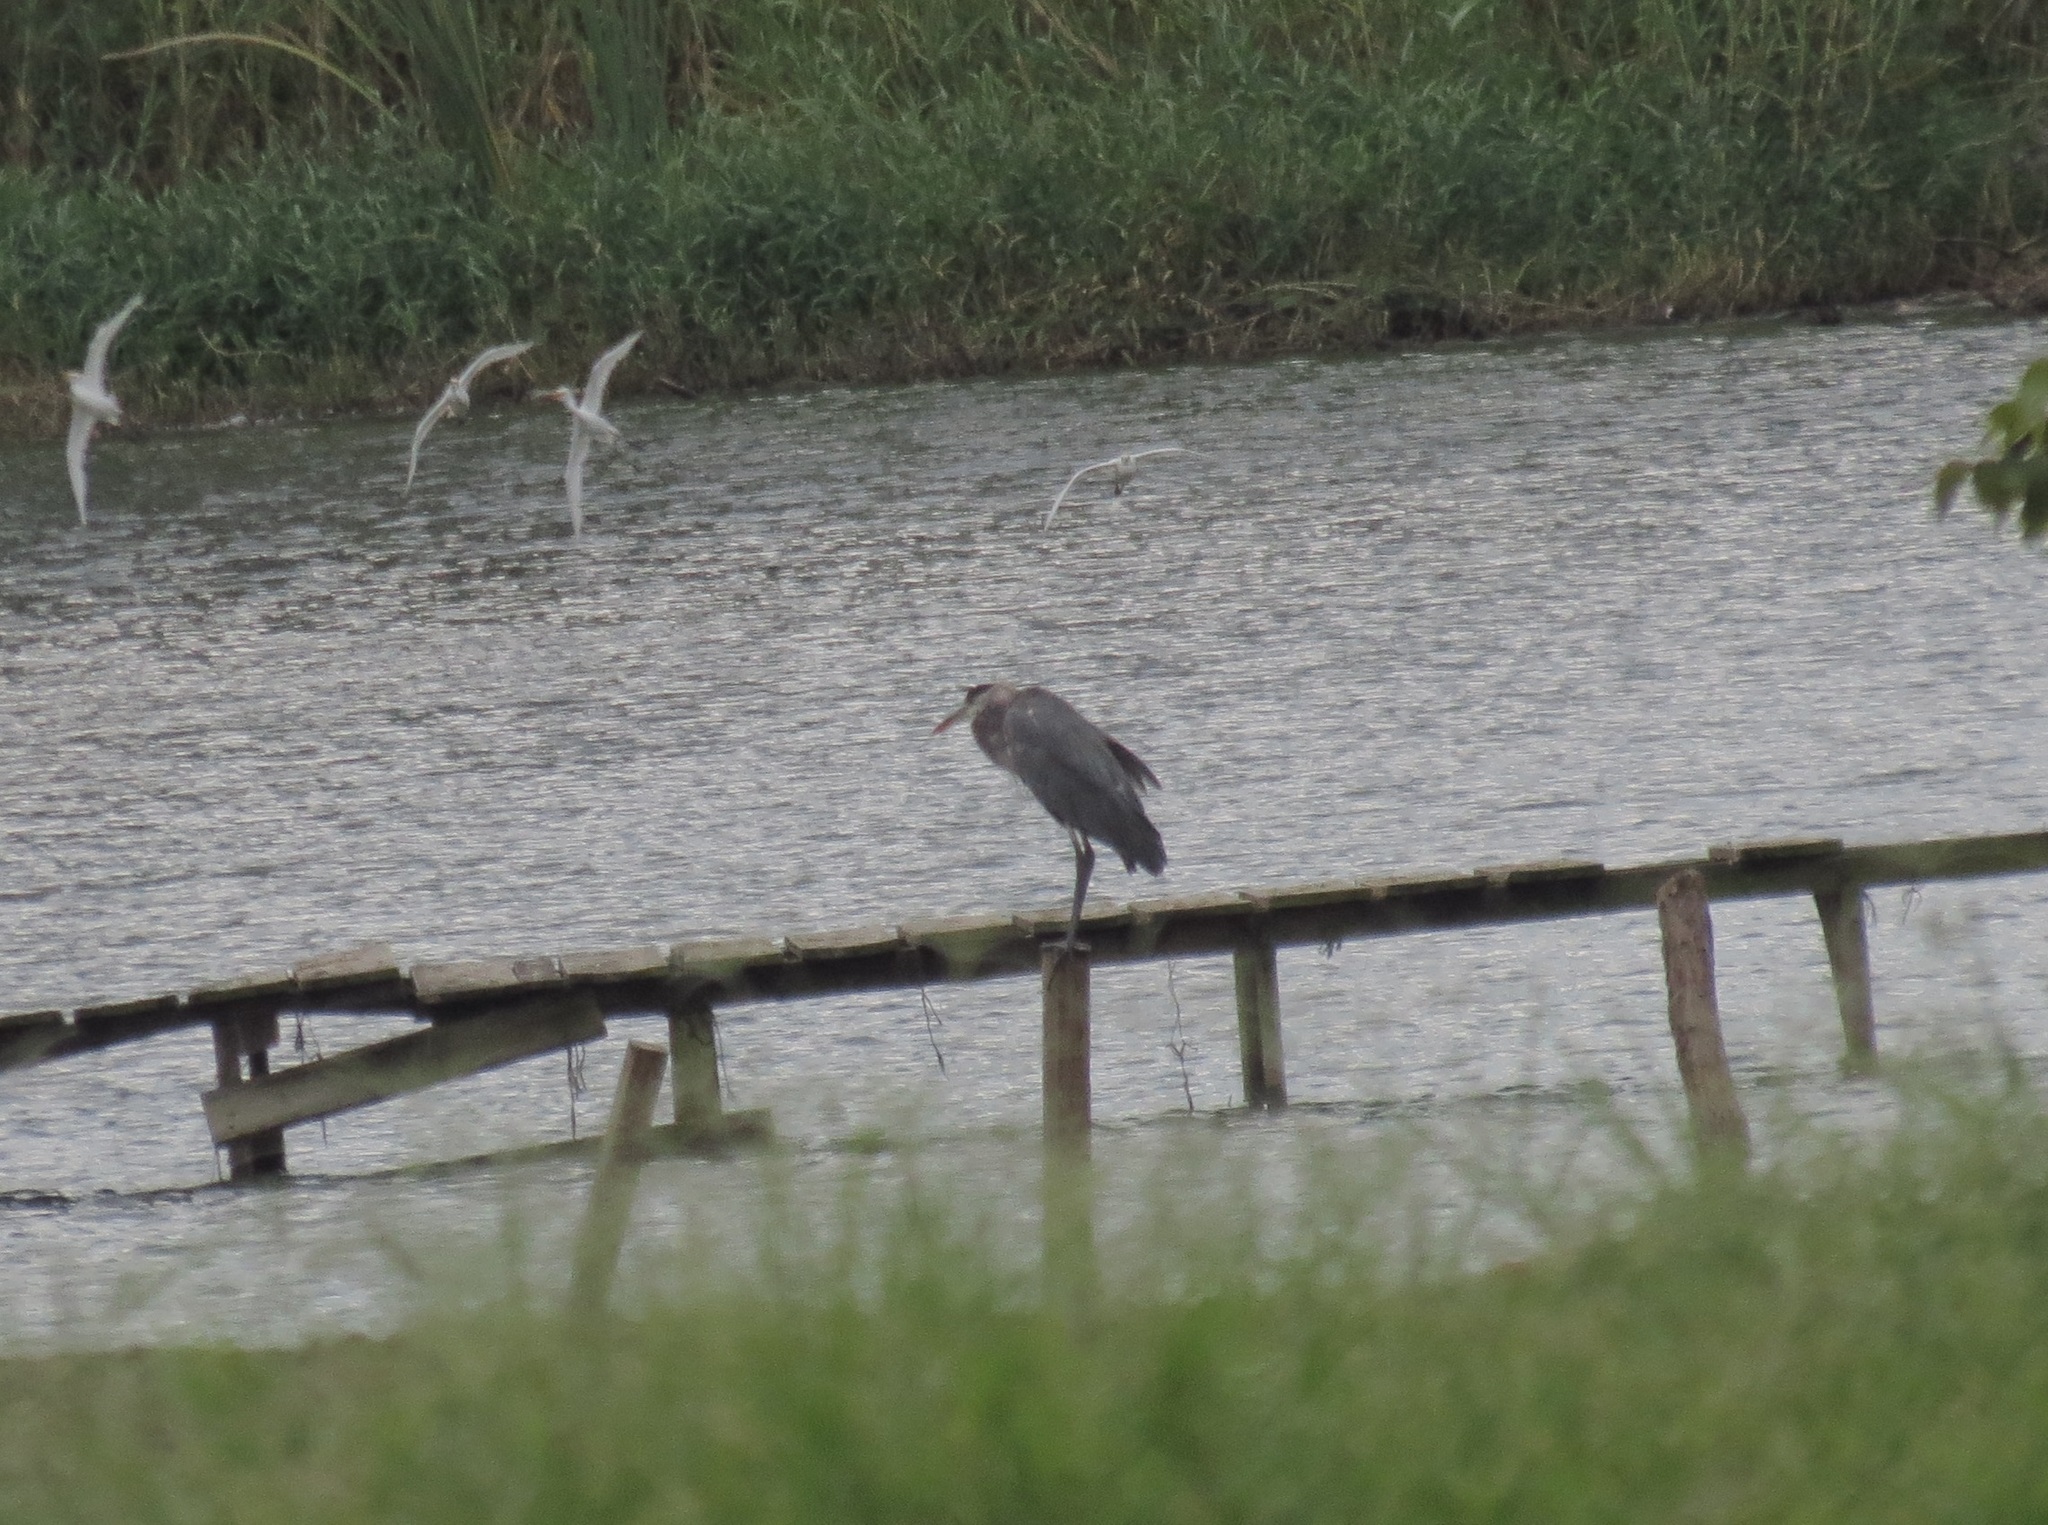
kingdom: Animalia
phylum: Chordata
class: Aves
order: Pelecaniformes
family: Ardeidae
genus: Ardea
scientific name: Ardea herodias
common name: Great blue heron
